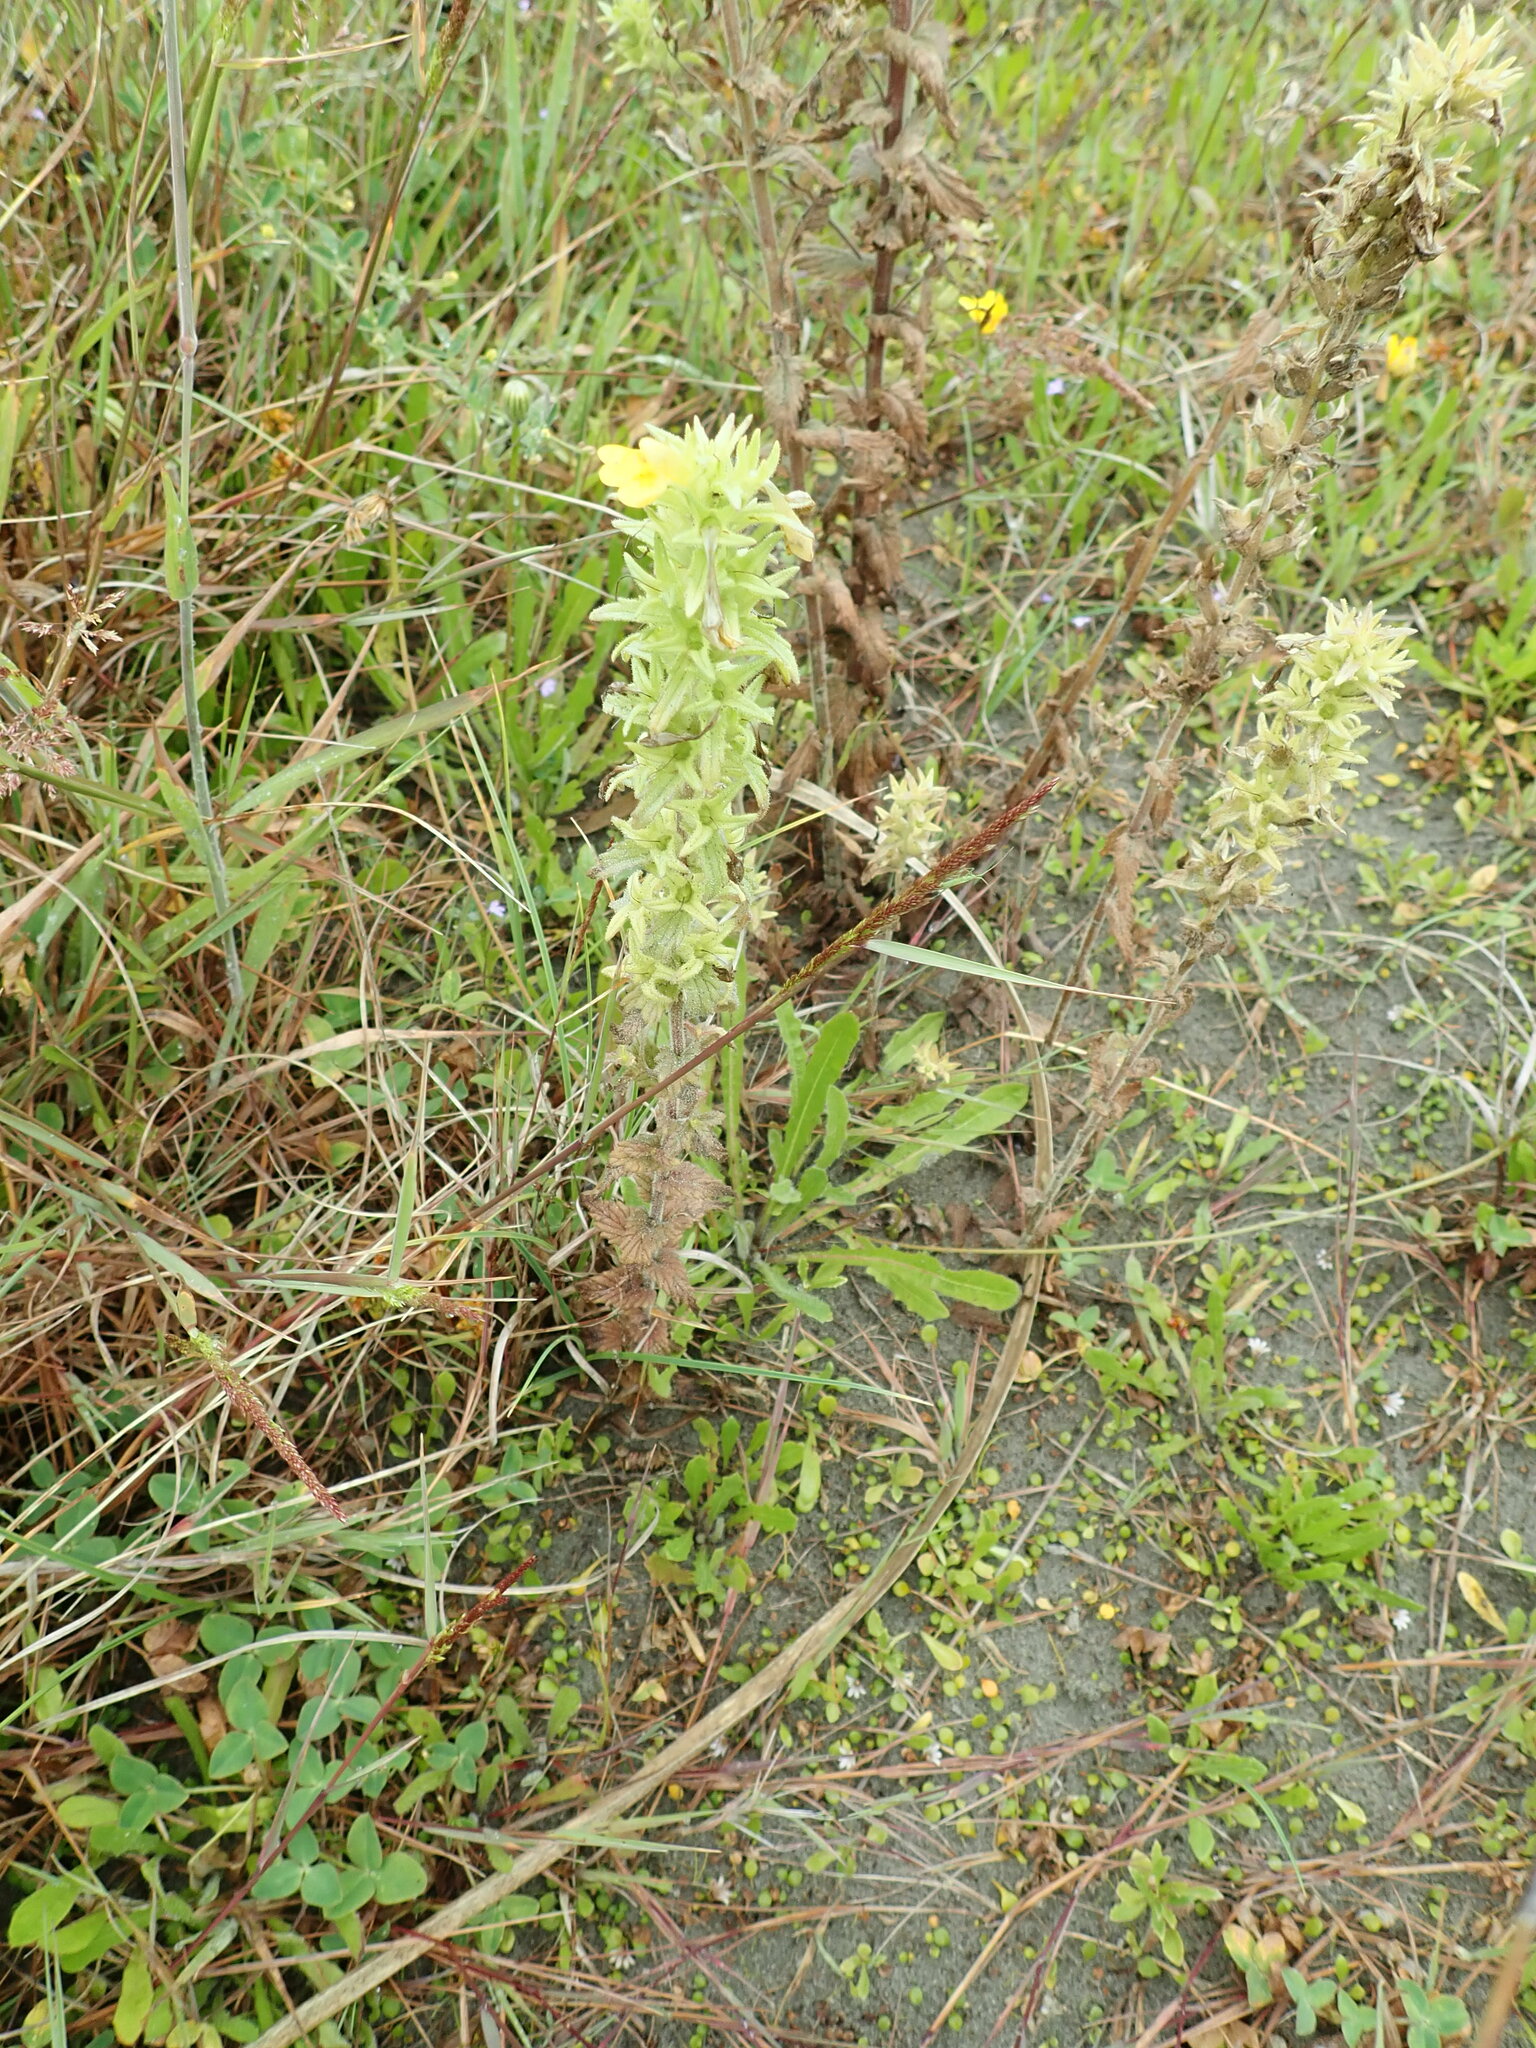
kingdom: Plantae
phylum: Tracheophyta
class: Magnoliopsida
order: Lamiales
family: Orobanchaceae
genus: Bellardia
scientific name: Bellardia viscosa
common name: Sticky parentucellia
